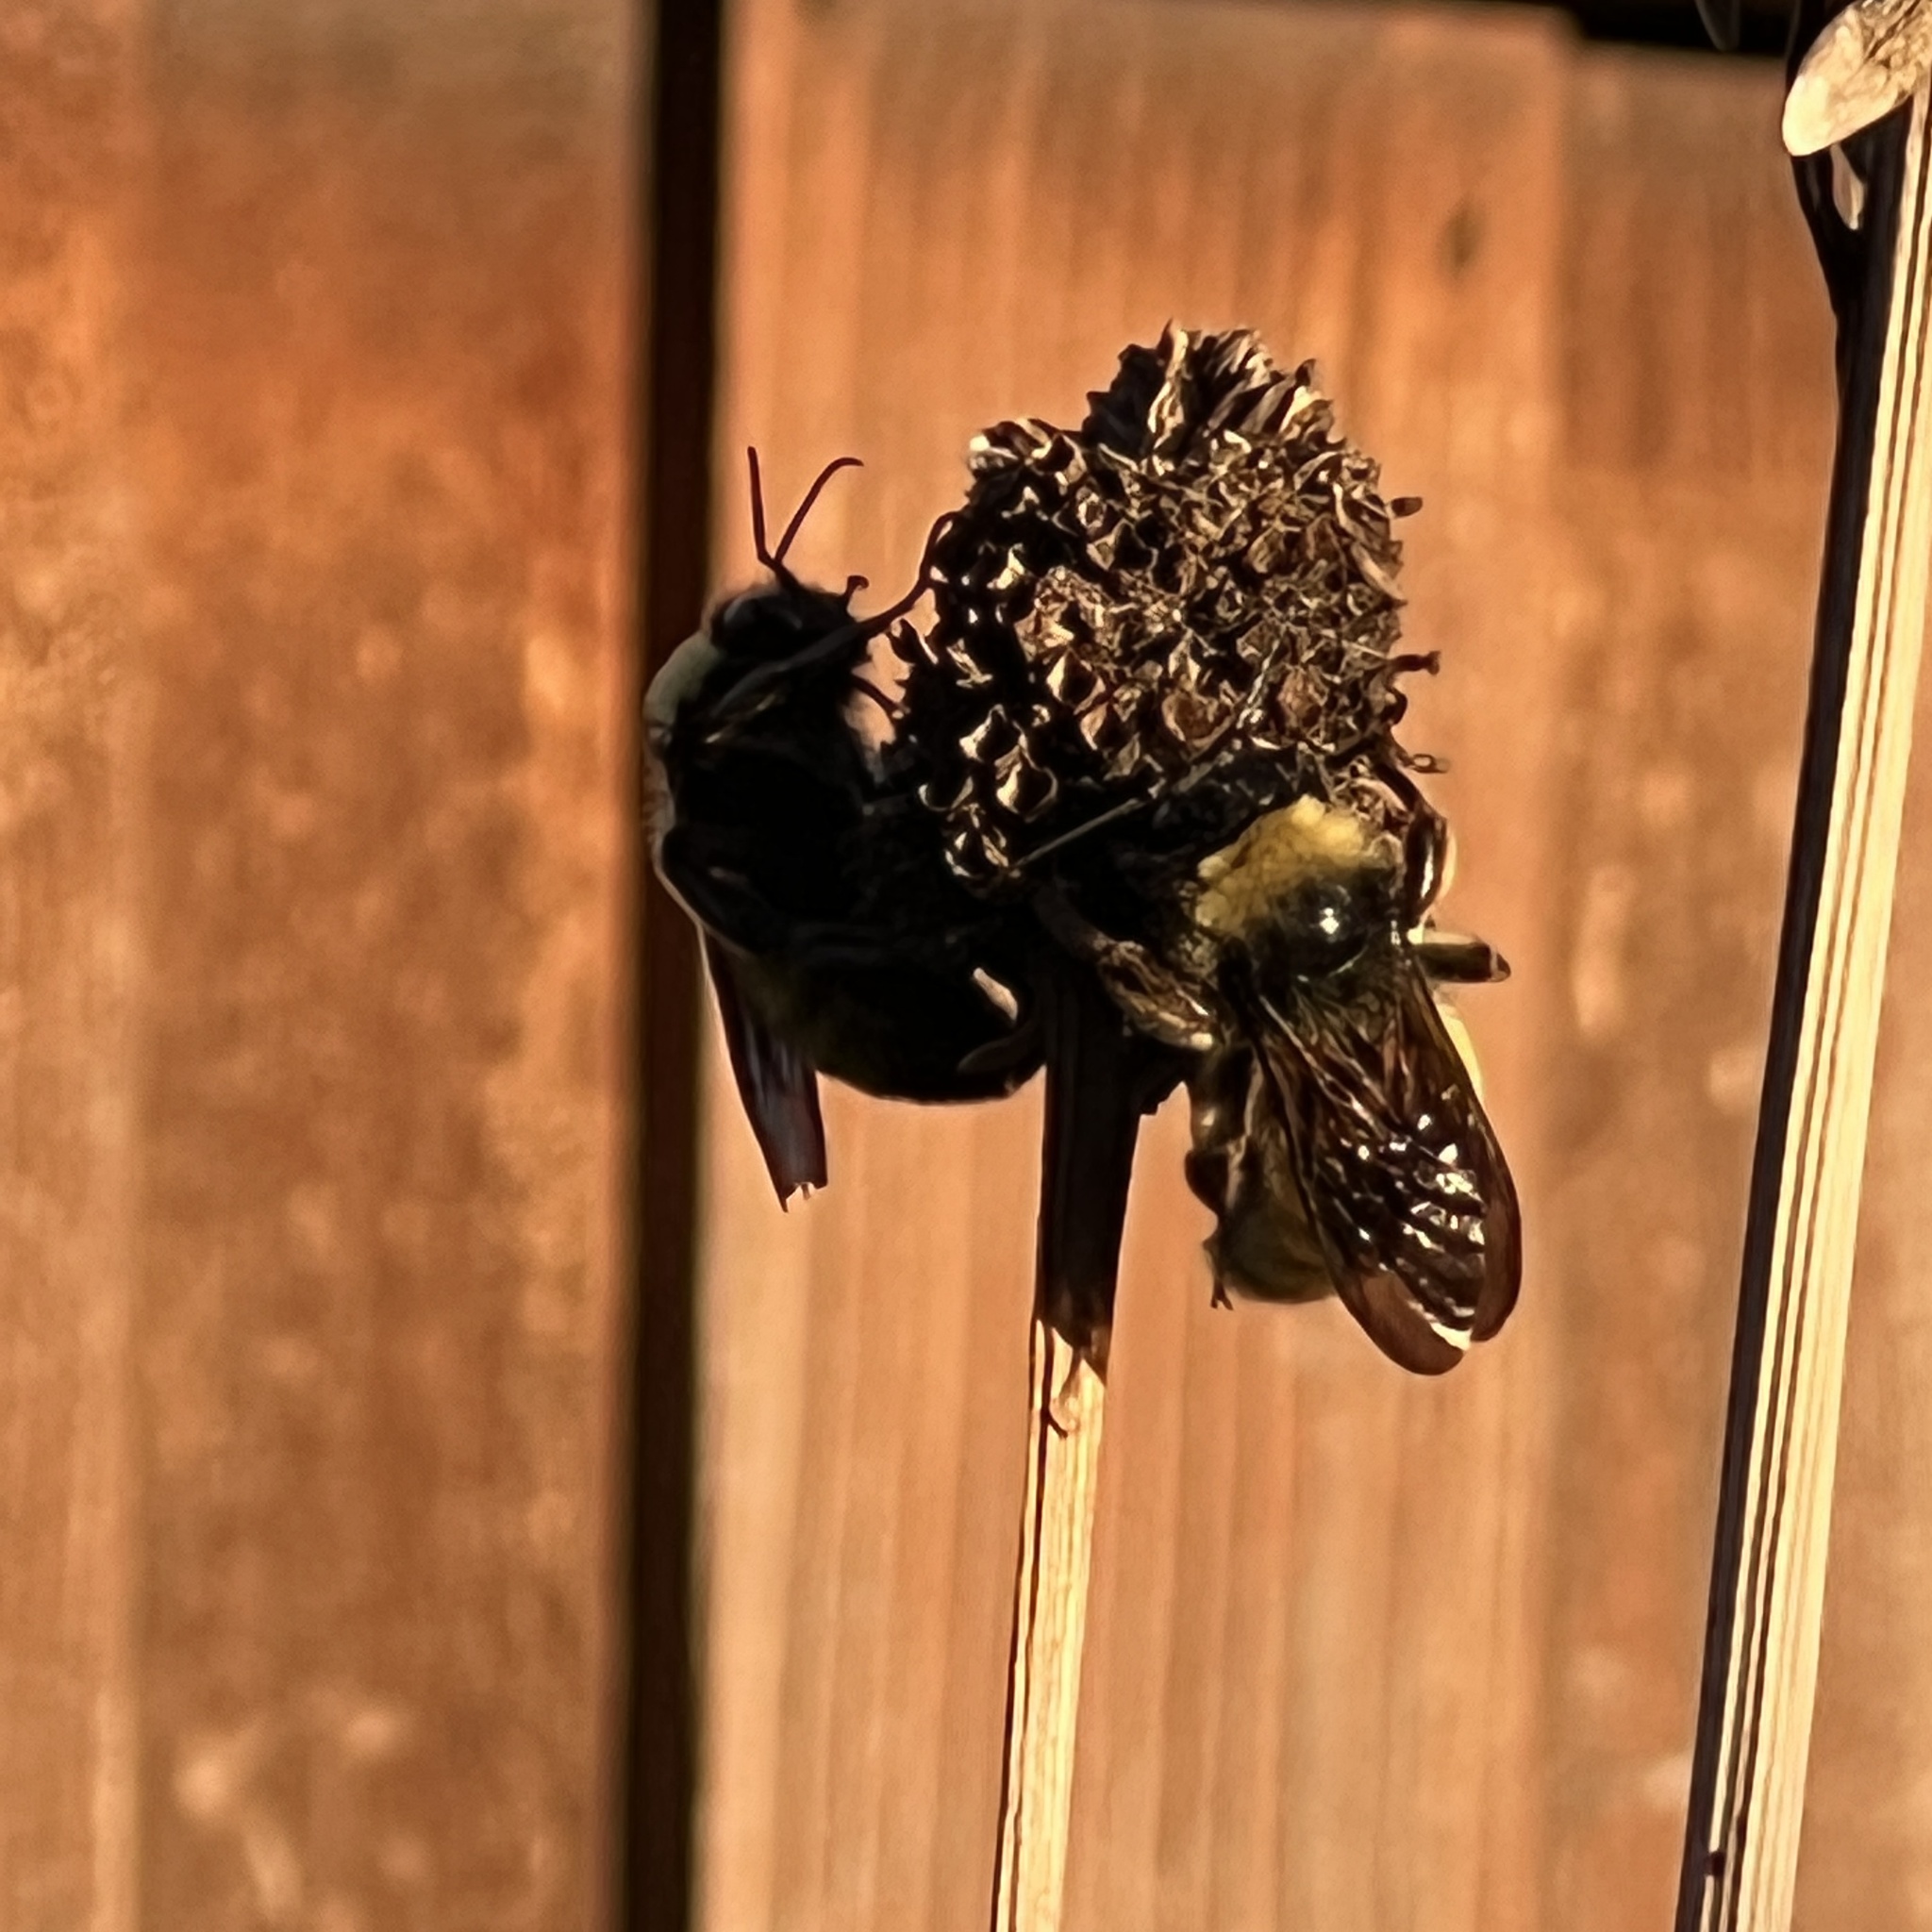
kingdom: Animalia
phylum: Arthropoda
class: Insecta
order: Hymenoptera
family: Apidae
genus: Bombus
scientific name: Bombus pensylvanicus
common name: Bumble bee
